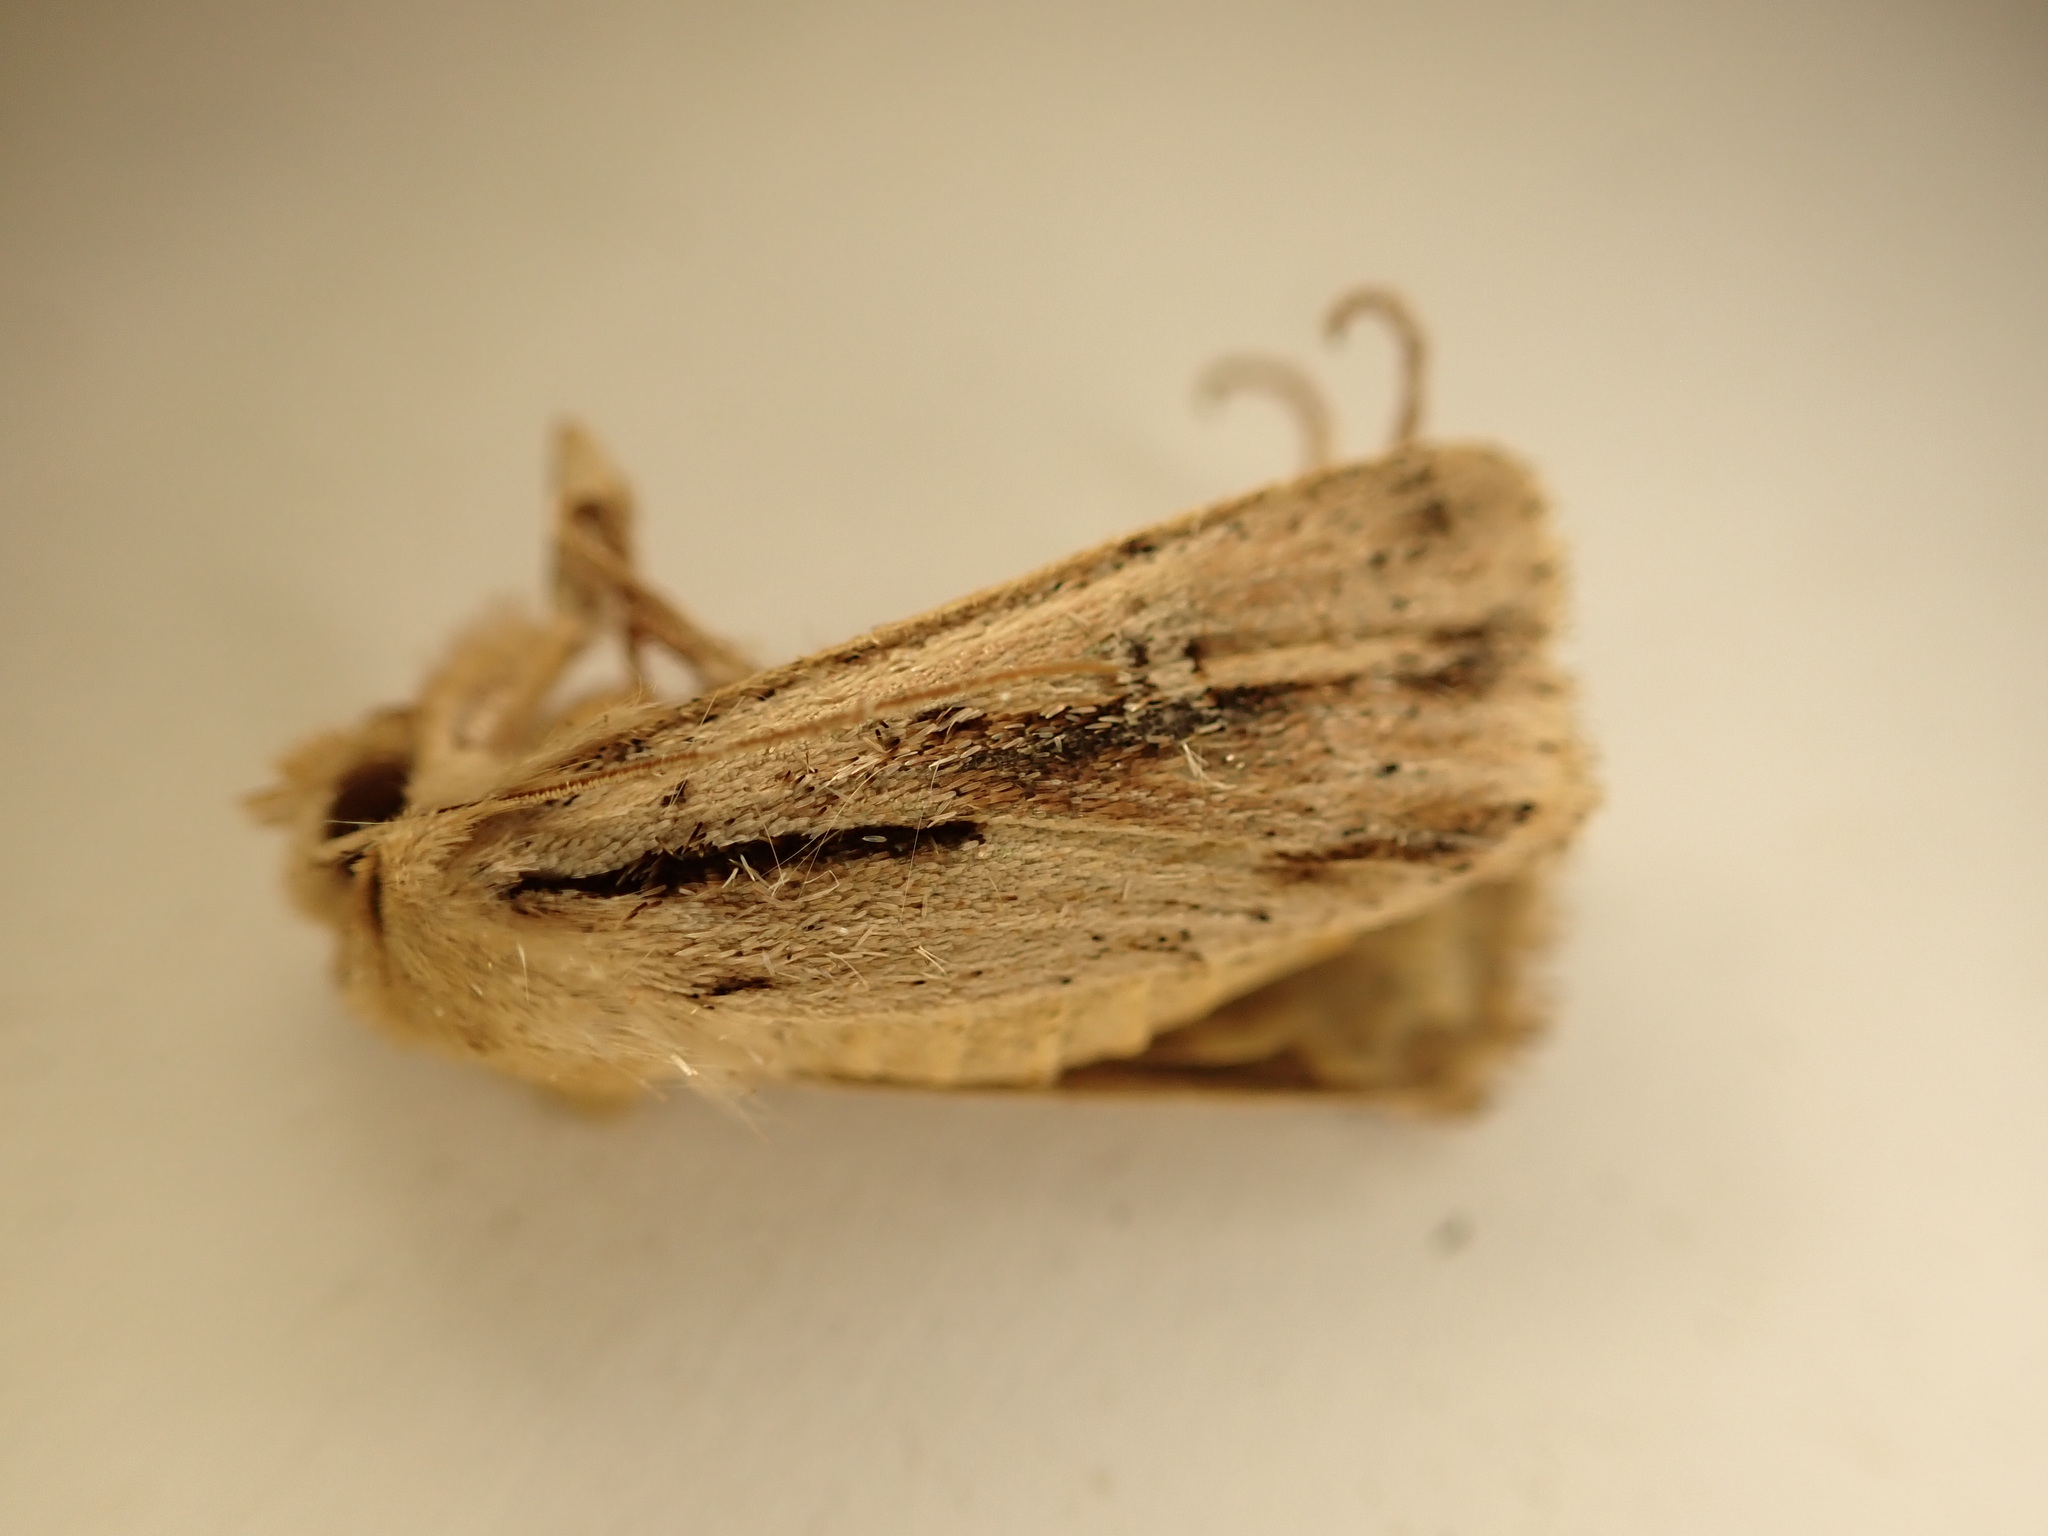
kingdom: Animalia
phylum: Arthropoda
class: Insecta
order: Lepidoptera
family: Noctuidae
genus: Ichneutica
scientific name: Ichneutica propria
